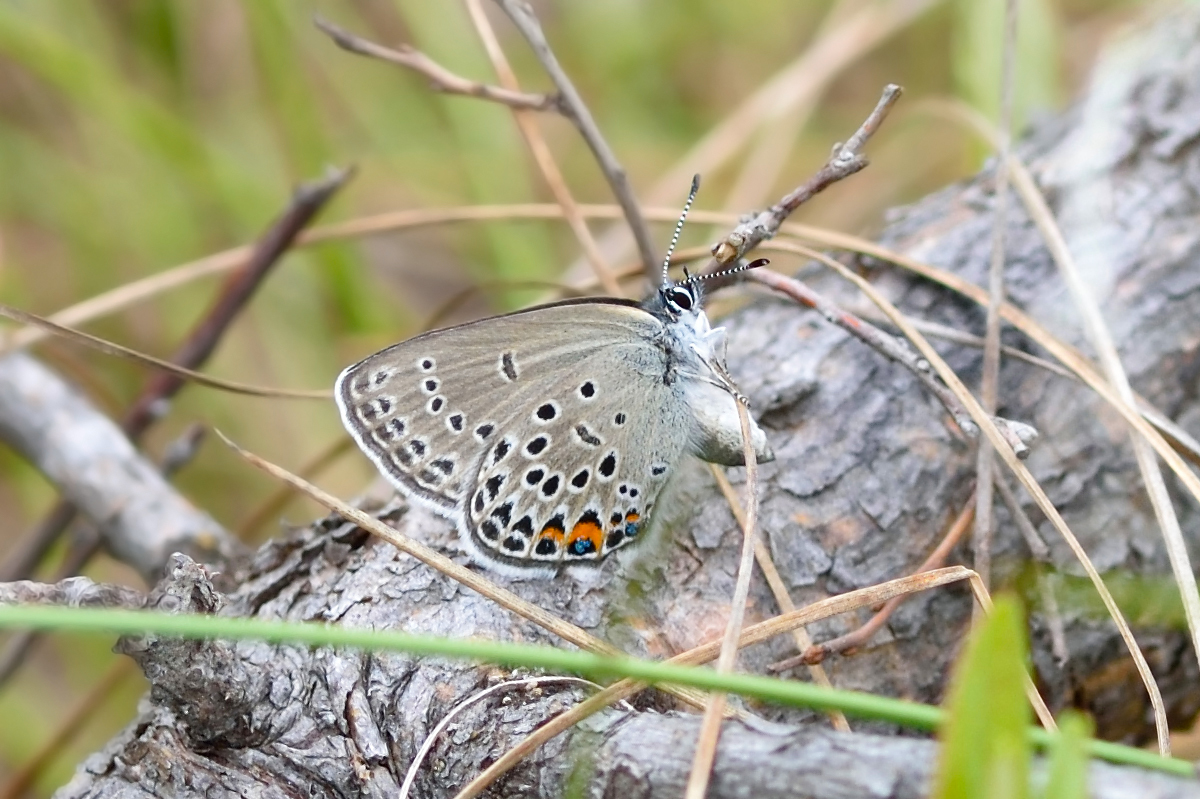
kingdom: Animalia
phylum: Arthropoda
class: Insecta
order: Lepidoptera
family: Lycaenidae
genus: Vacciniina
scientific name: Vacciniina optilete
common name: Cranberry blue
